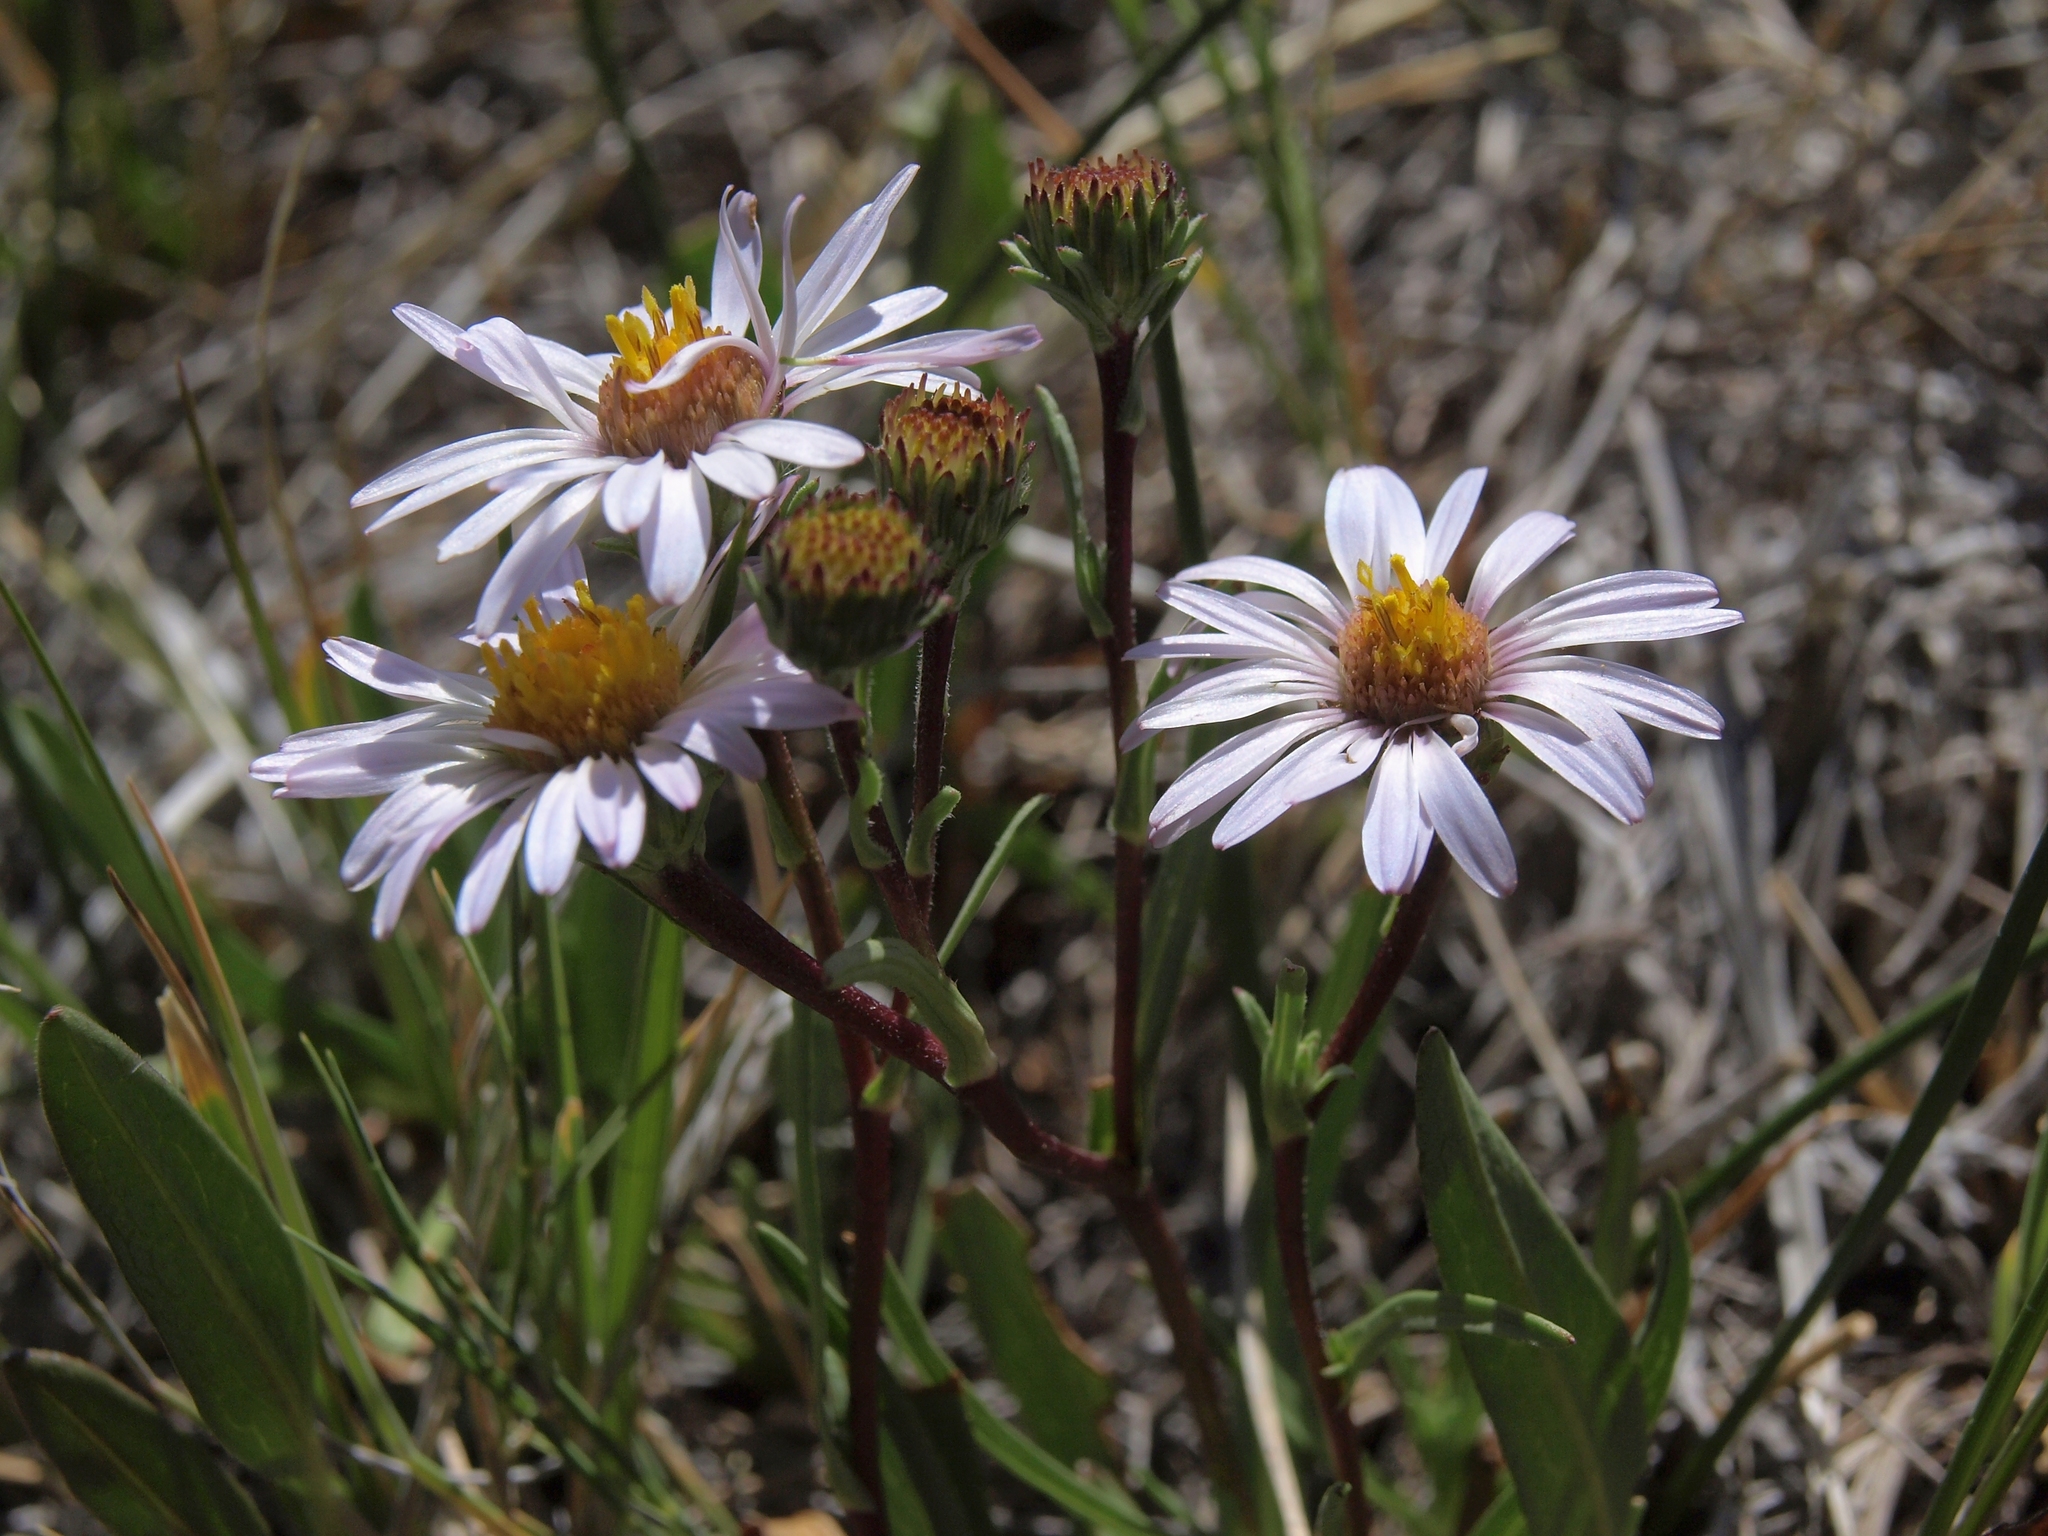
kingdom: Plantae
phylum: Tracheophyta
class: Magnoliopsida
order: Asterales
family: Asteraceae
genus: Symphyotrichum
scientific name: Symphyotrichum spathulatum
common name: Western mountain aster
